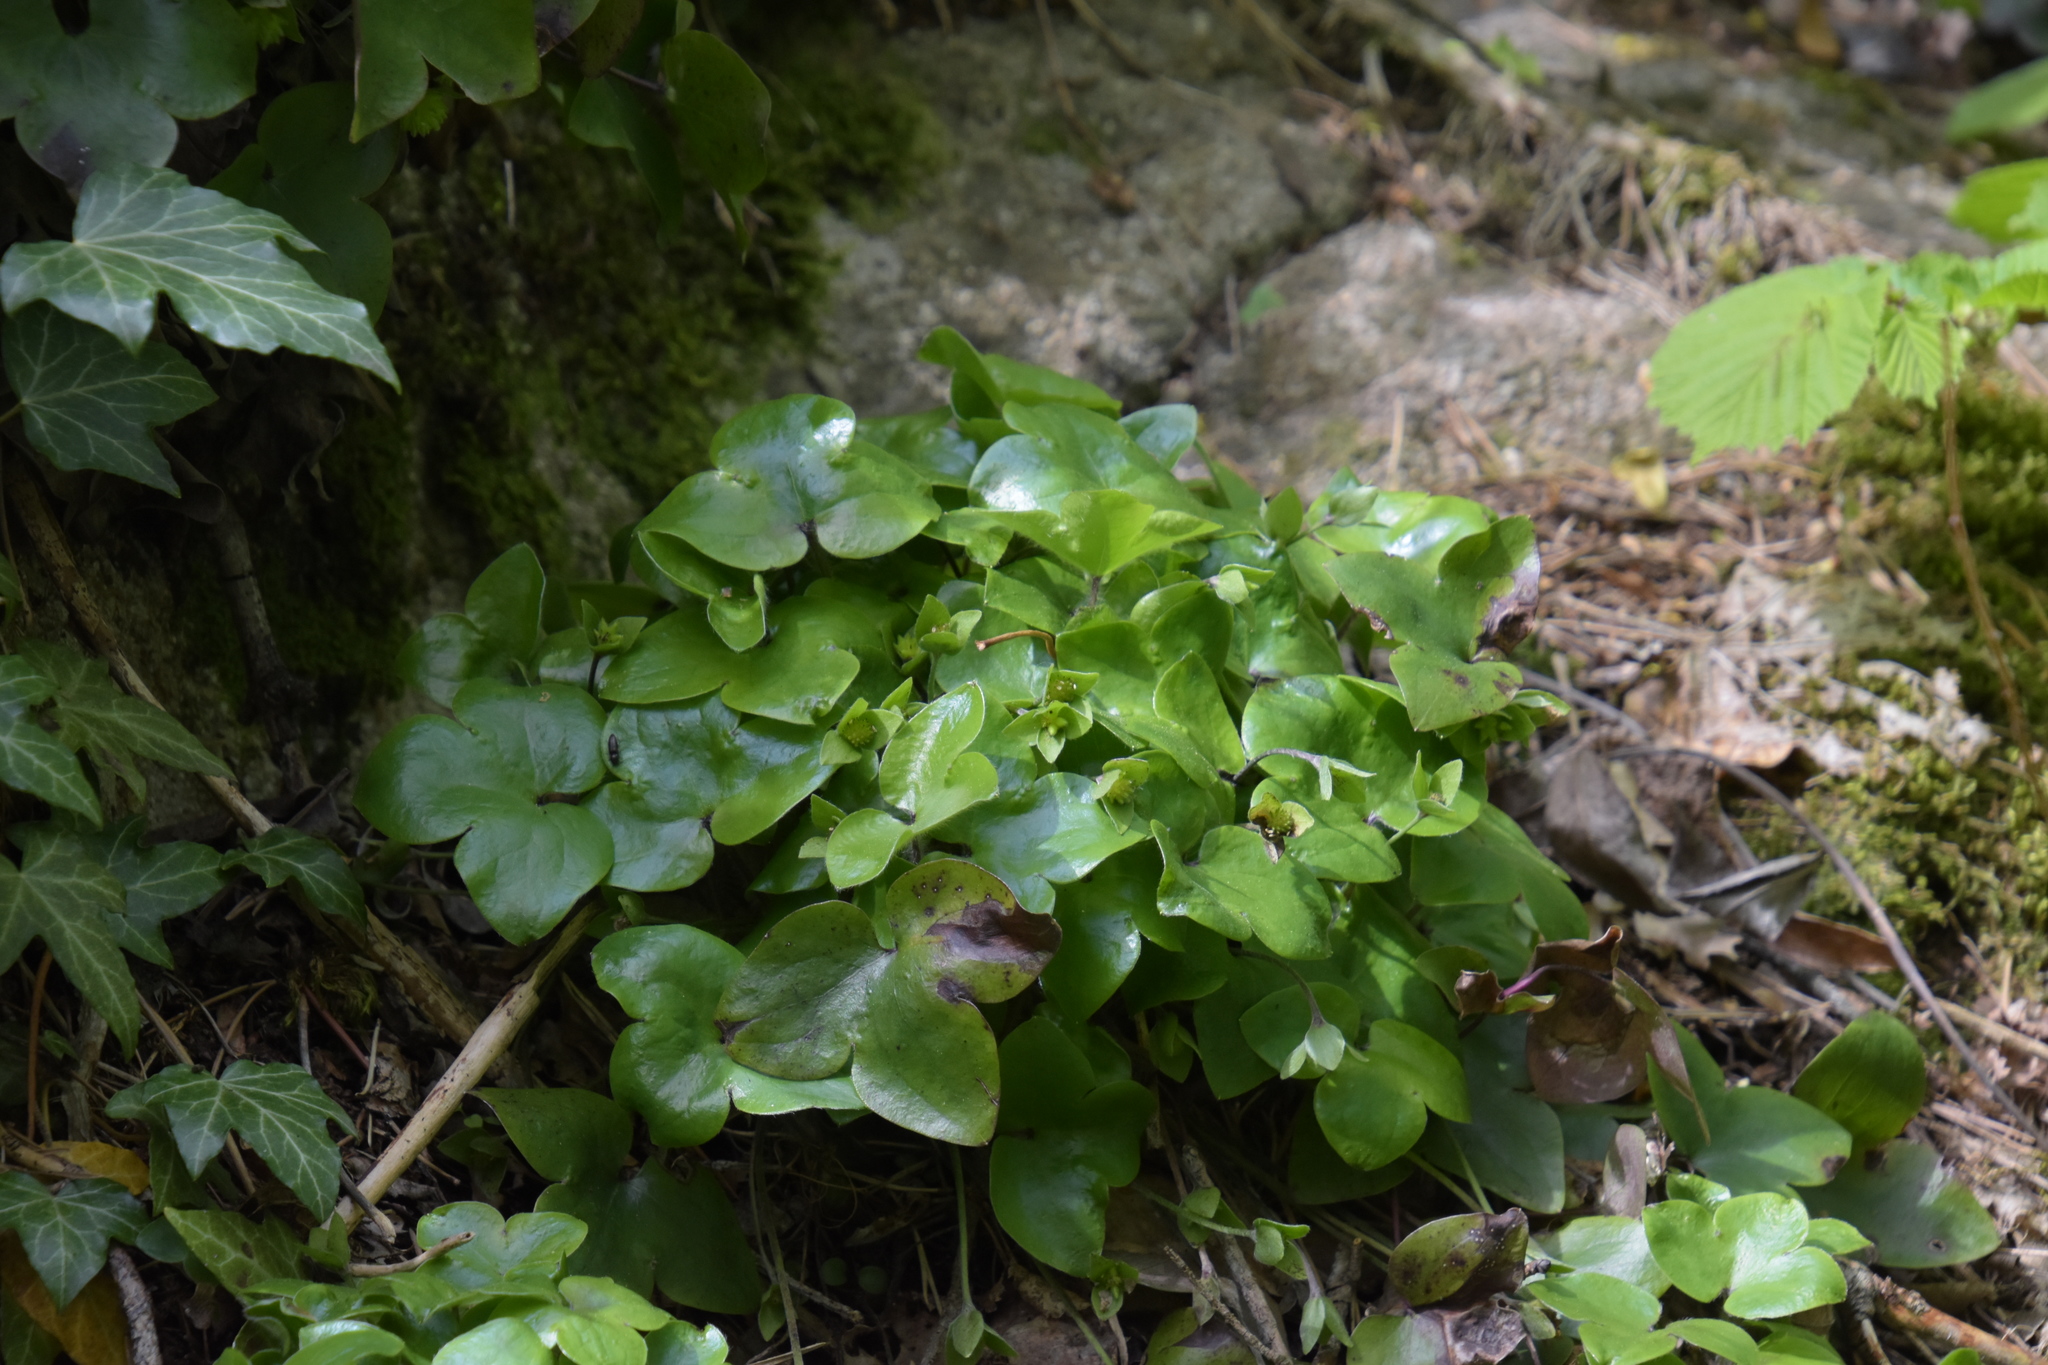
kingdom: Plantae
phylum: Tracheophyta
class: Magnoliopsida
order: Ranunculales
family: Ranunculaceae
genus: Hepatica
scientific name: Hepatica nobilis
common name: Liverleaf
